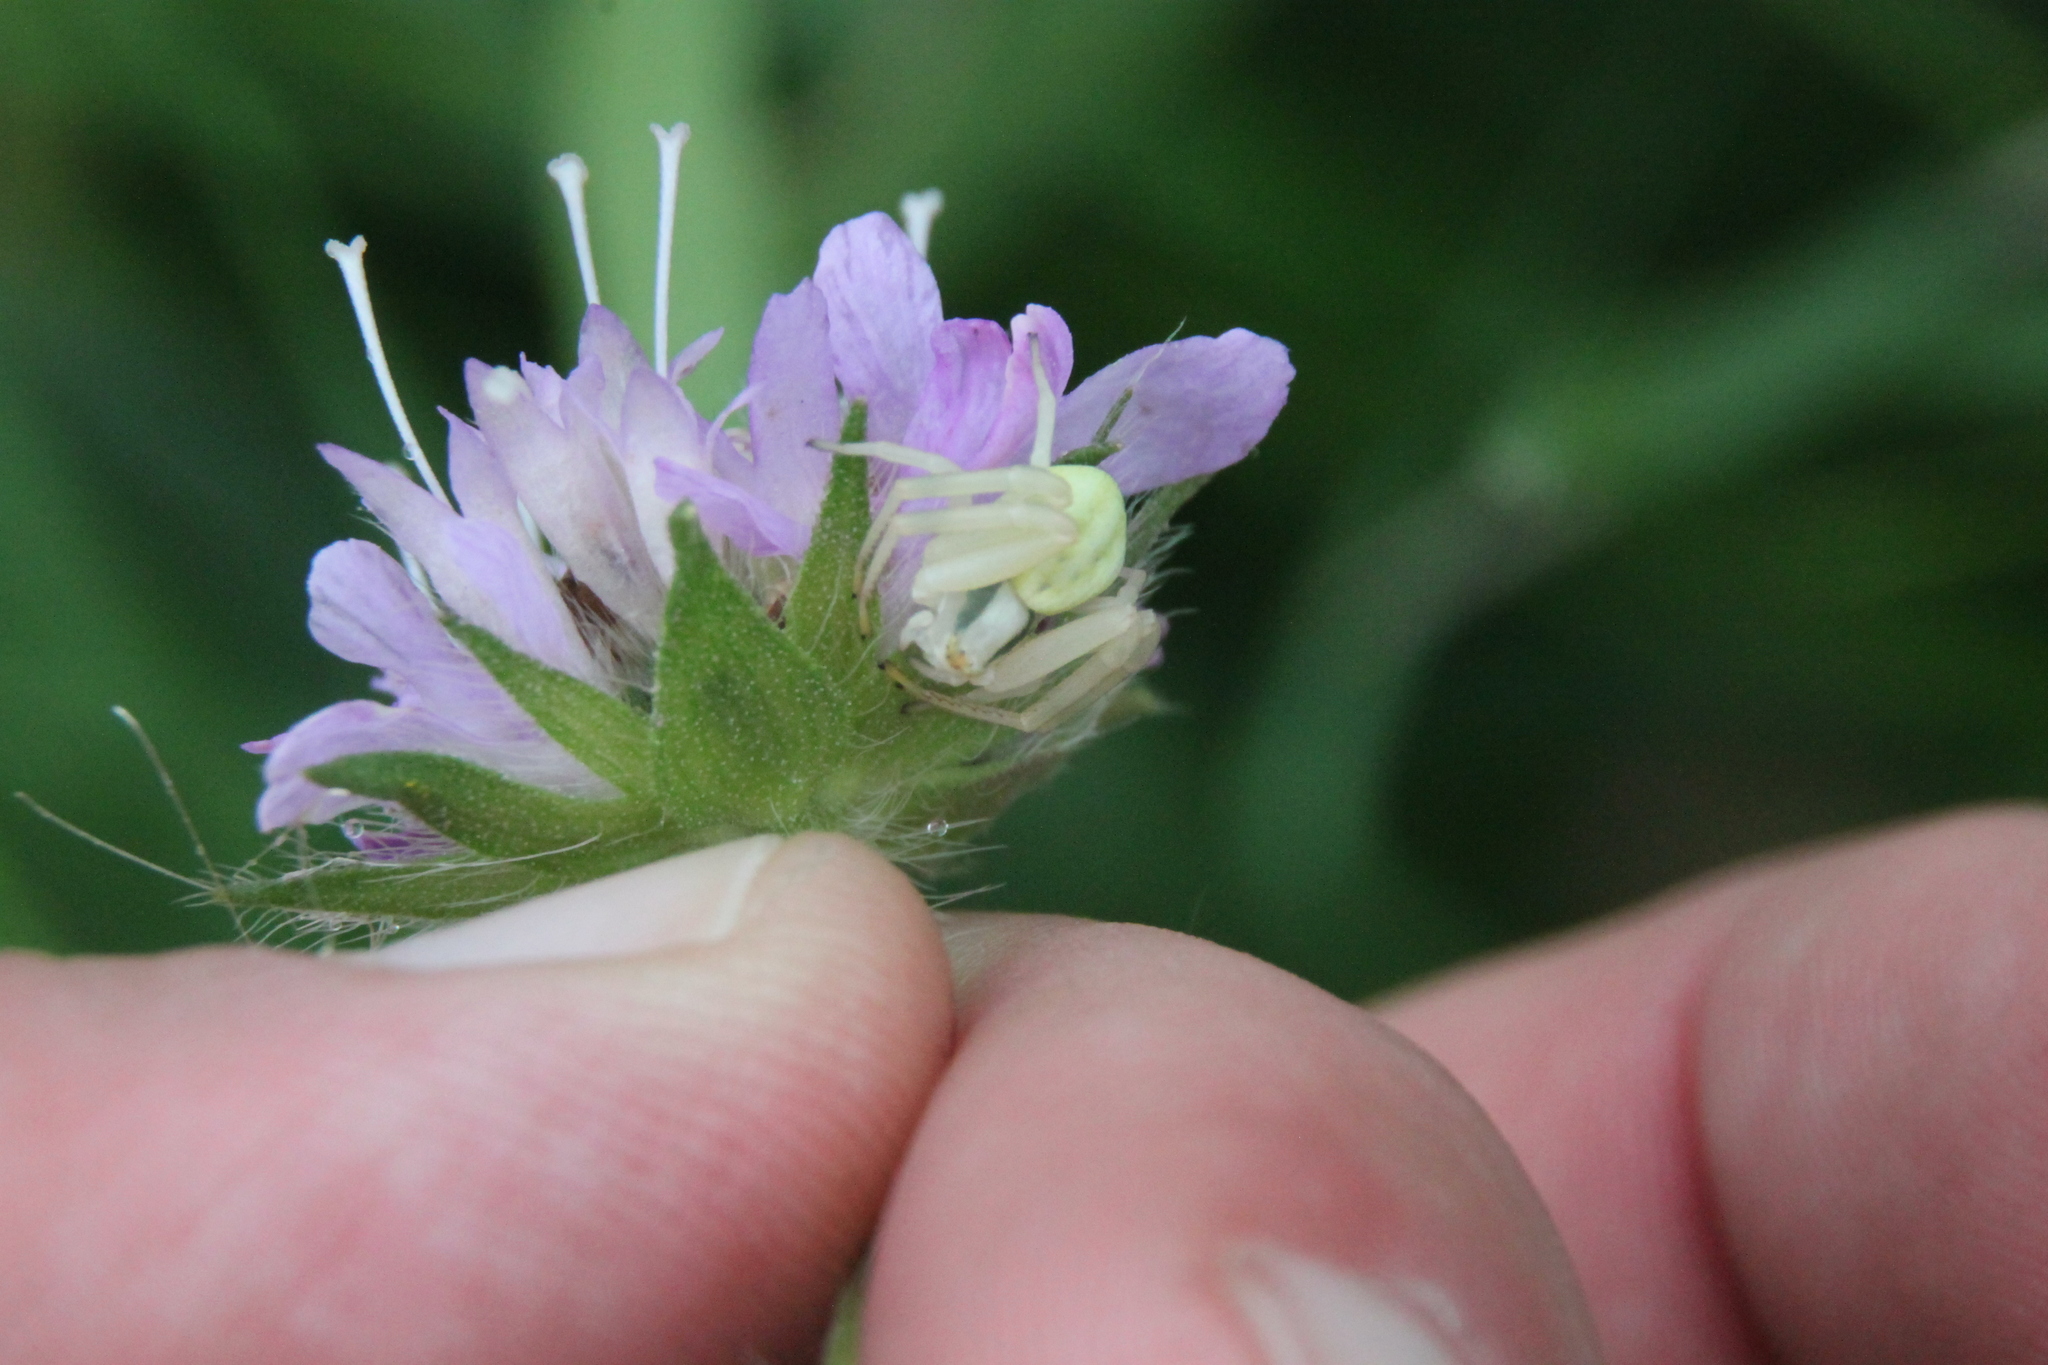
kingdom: Animalia
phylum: Arthropoda
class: Arachnida
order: Araneae
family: Thomisidae
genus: Misumena
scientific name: Misumena vatia
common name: Goldenrod crab spider
